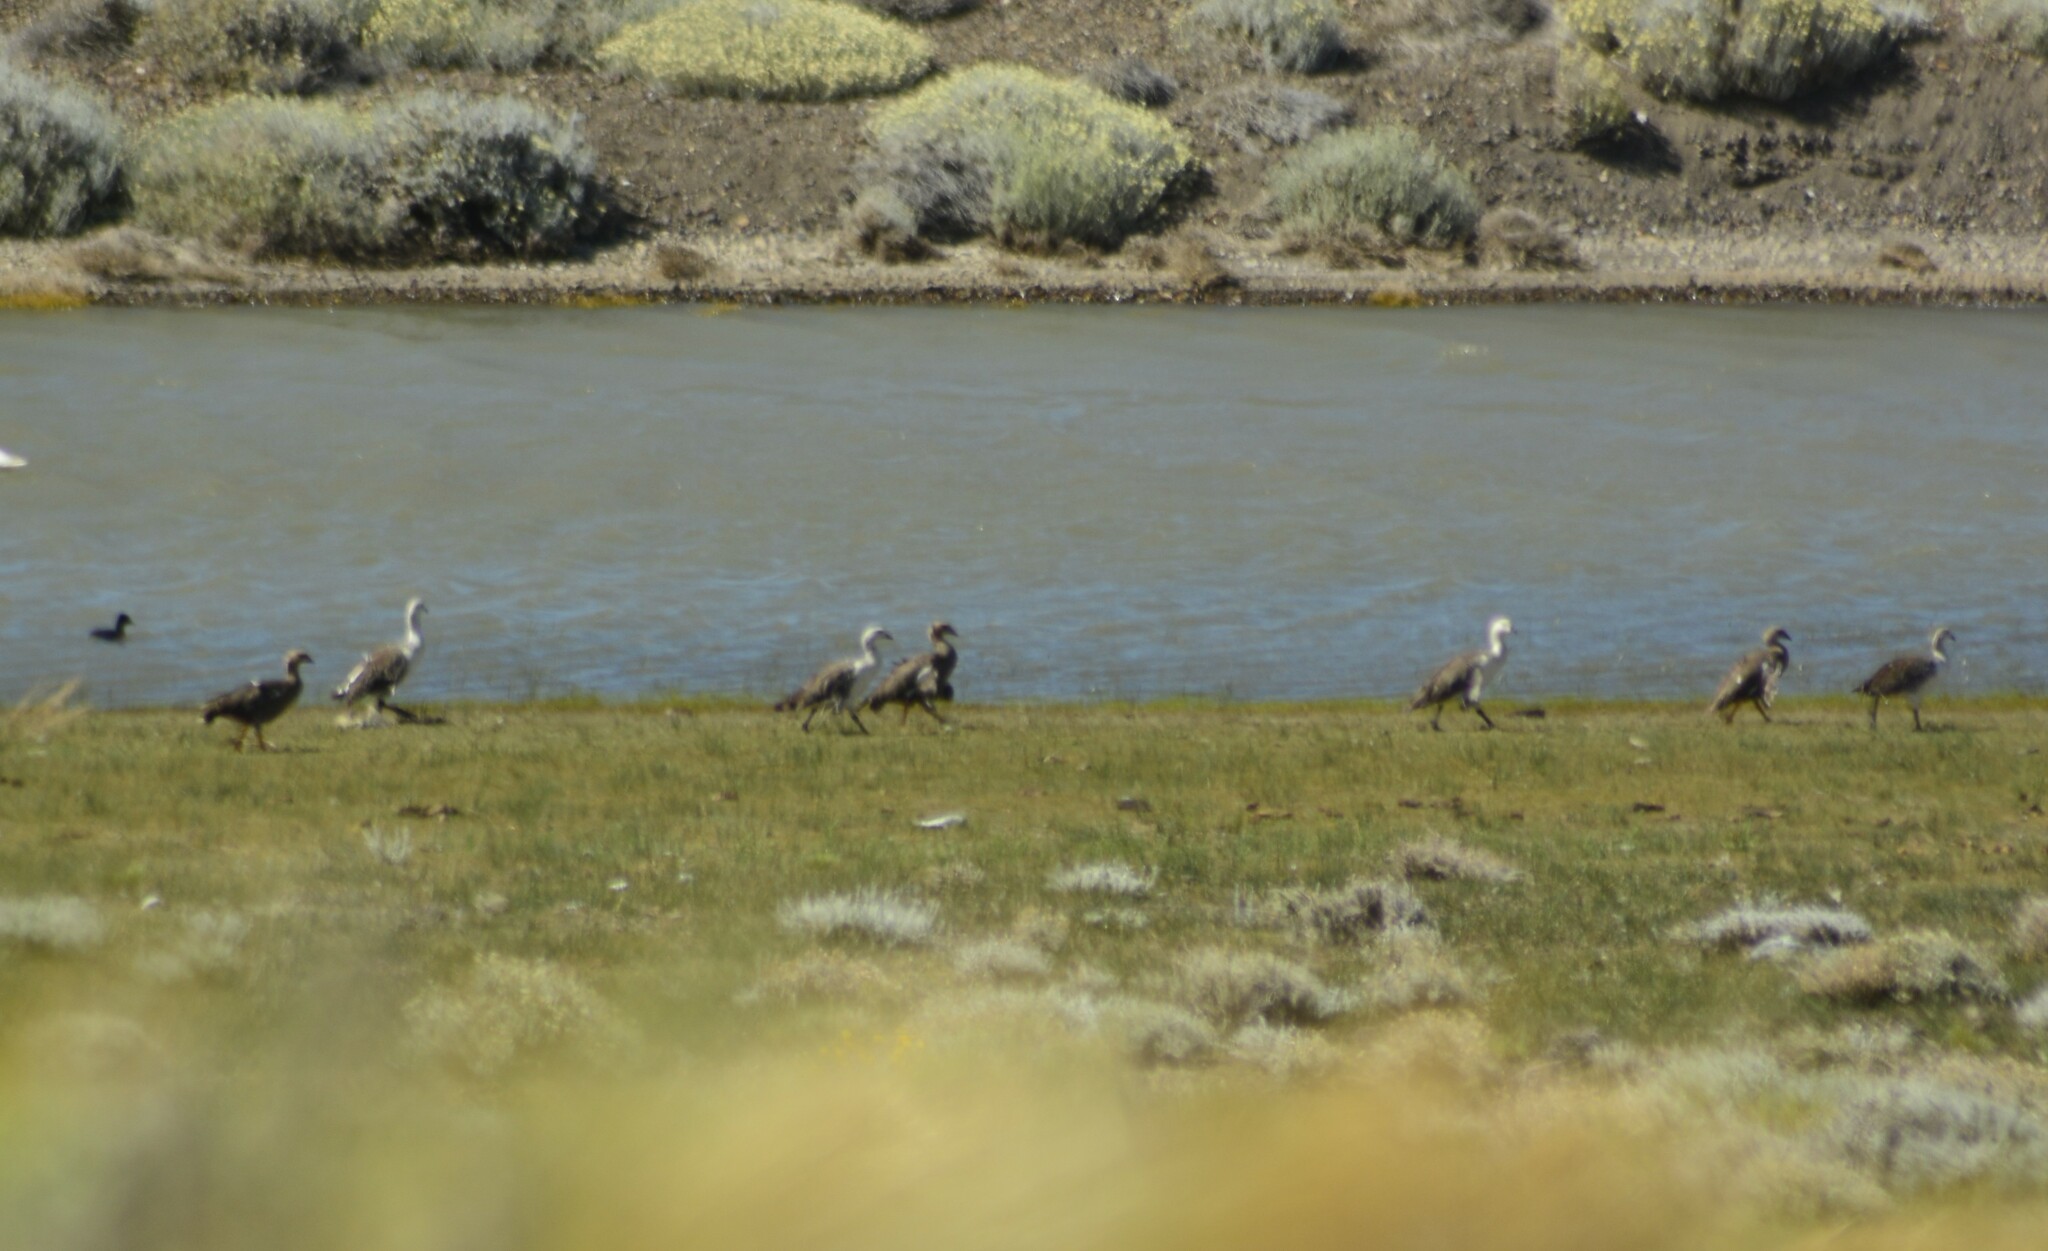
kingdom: Animalia
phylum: Chordata
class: Aves
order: Anseriformes
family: Anatidae
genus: Chloephaga
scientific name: Chloephaga picta
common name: Upland goose
